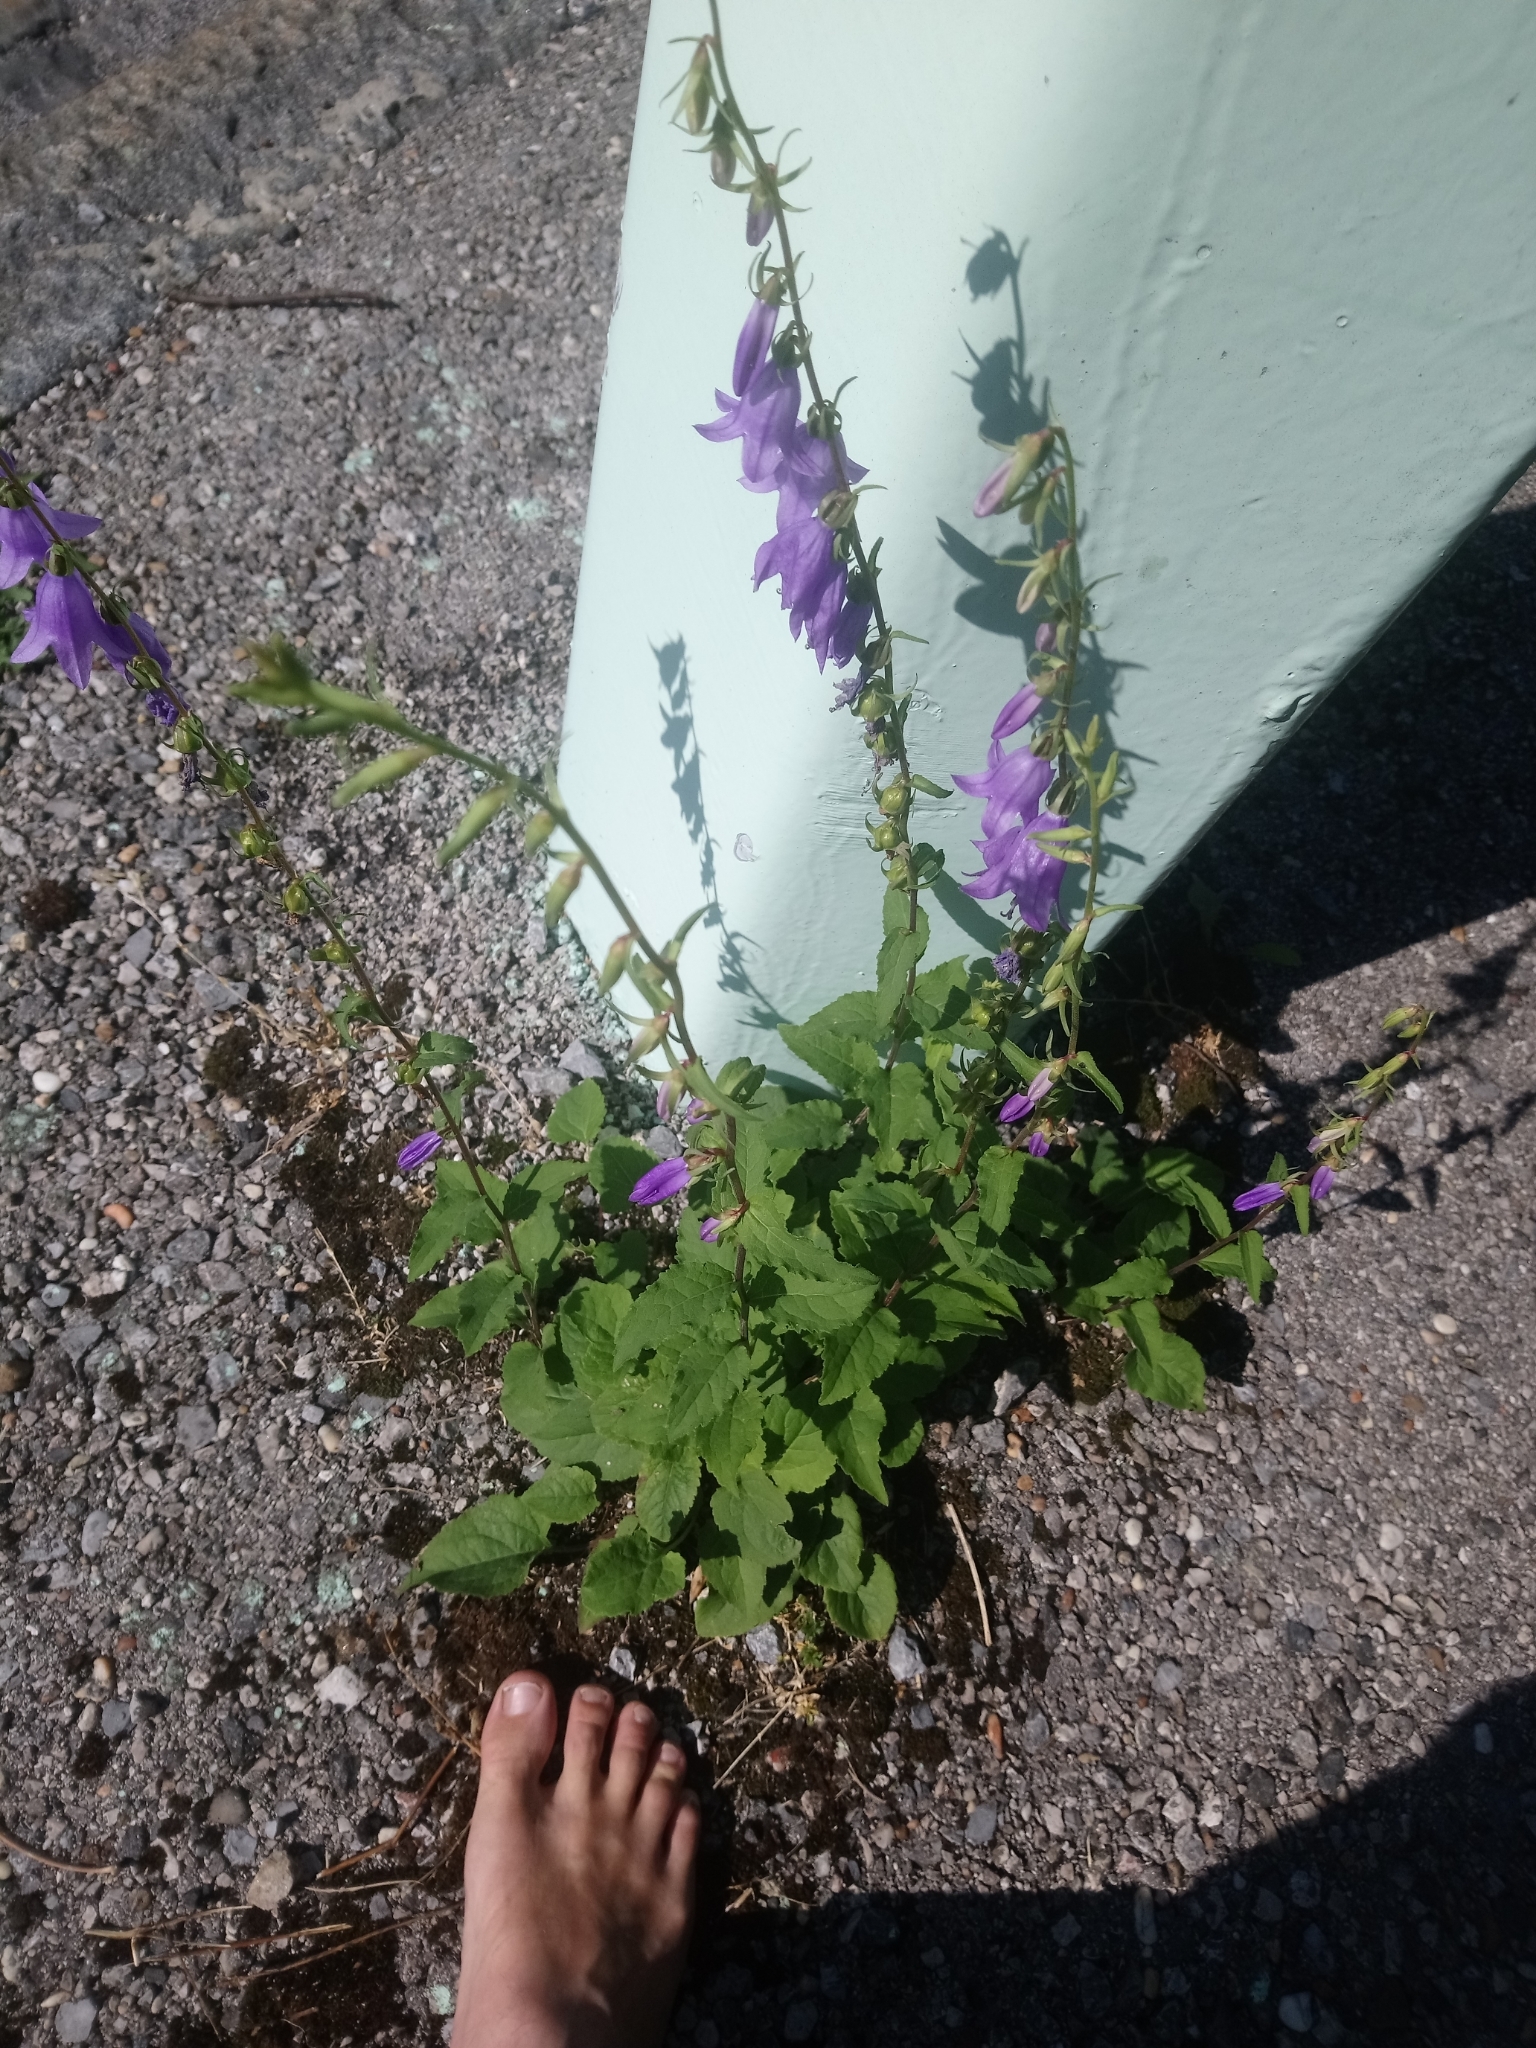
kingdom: Plantae
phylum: Tracheophyta
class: Magnoliopsida
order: Asterales
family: Campanulaceae
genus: Campanula
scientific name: Campanula rapunculoides
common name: Creeping bellflower
